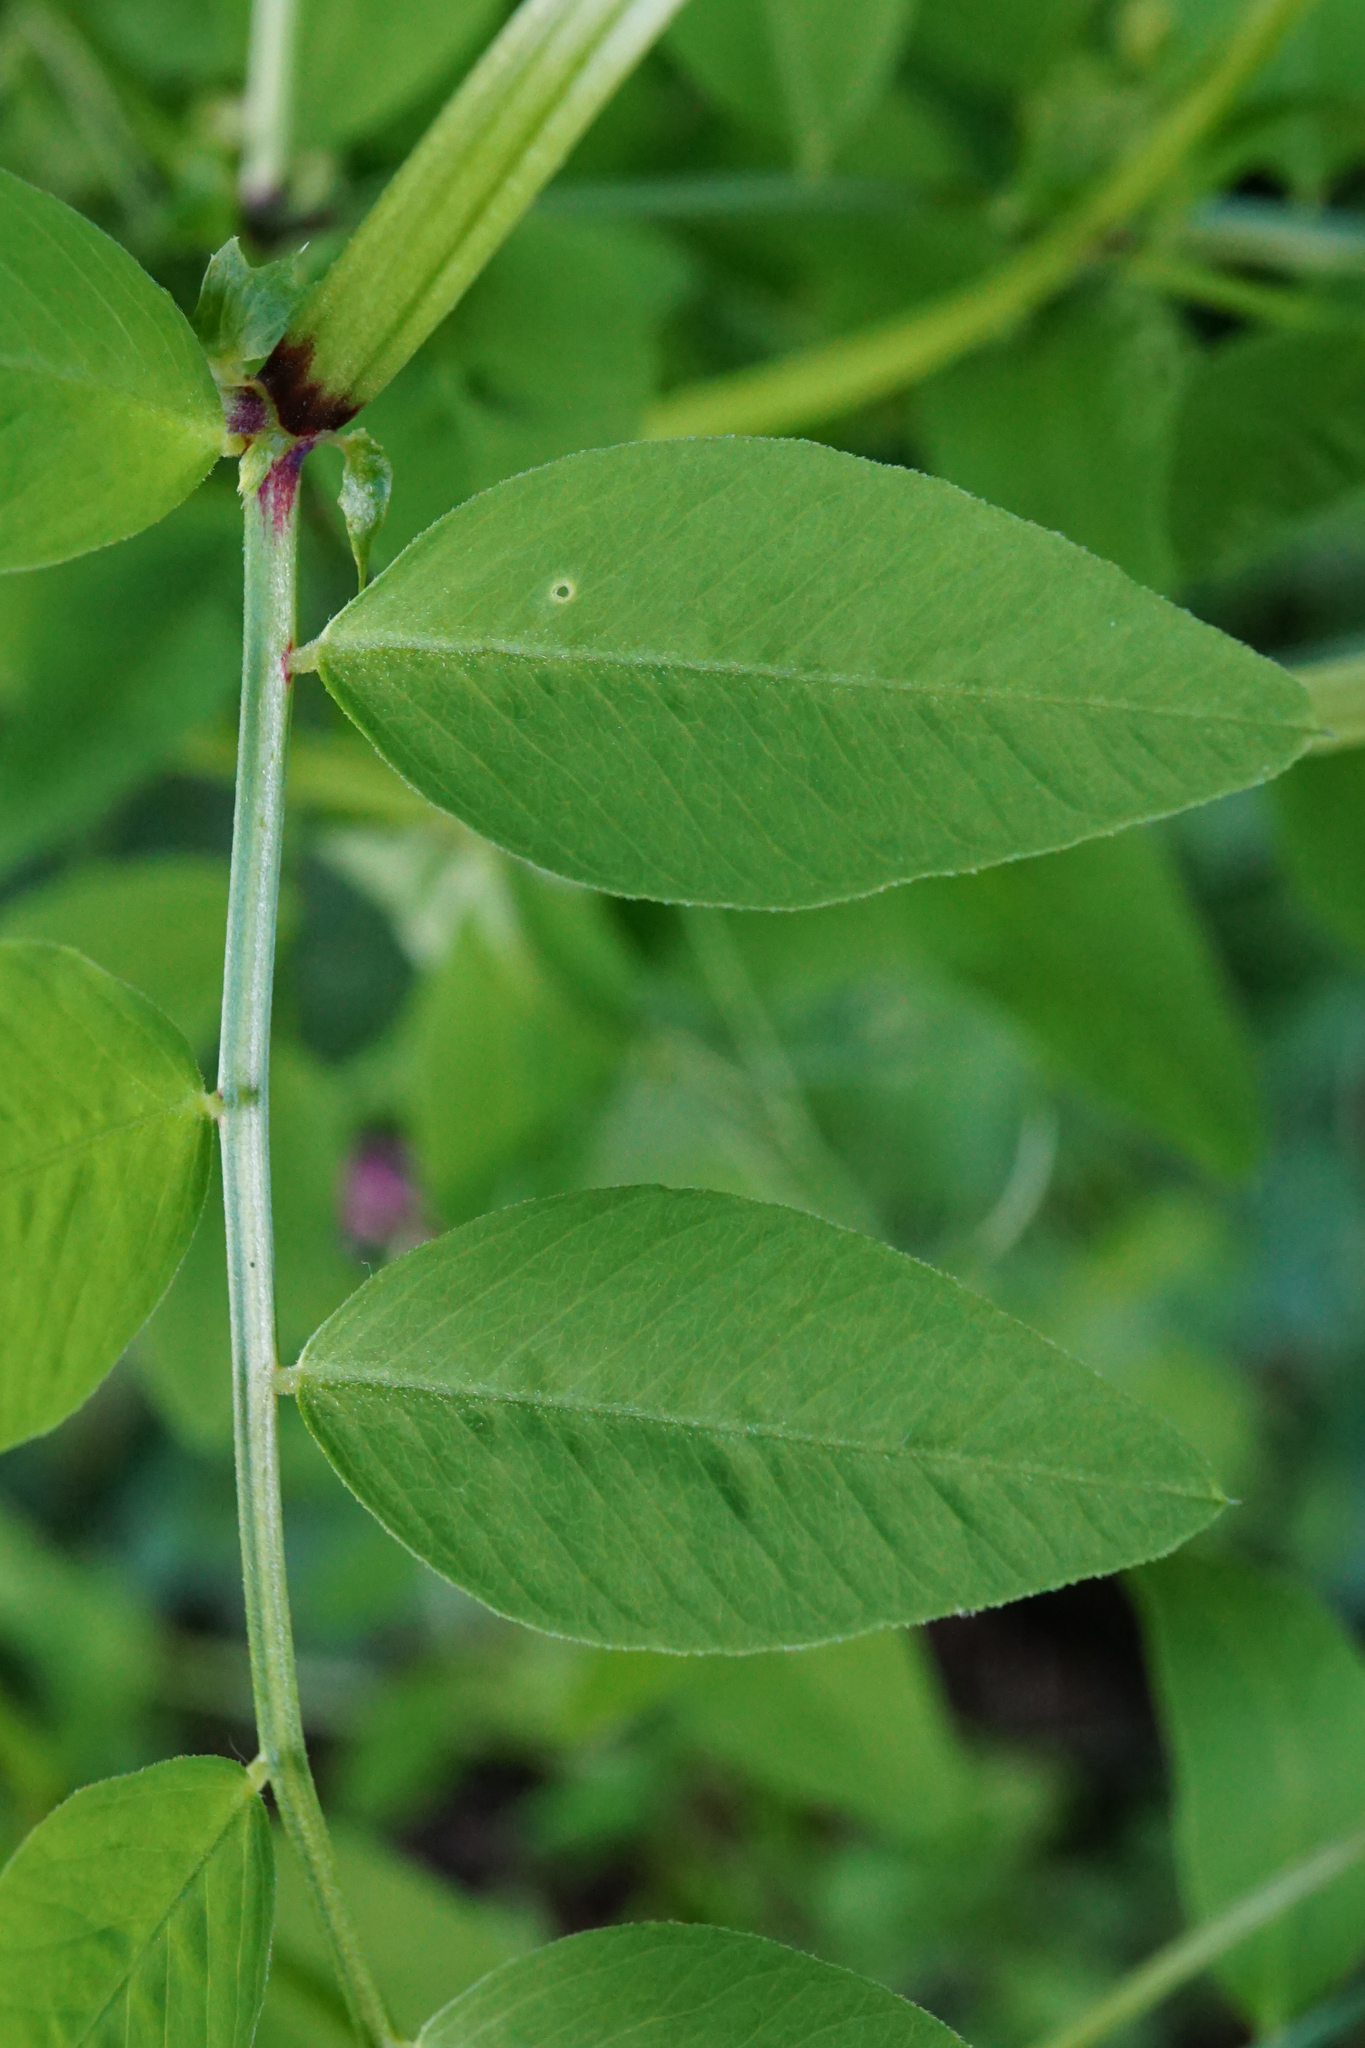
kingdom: Plantae
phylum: Tracheophyta
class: Magnoliopsida
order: Fabales
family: Fabaceae
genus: Vicia
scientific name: Vicia dumetorum
